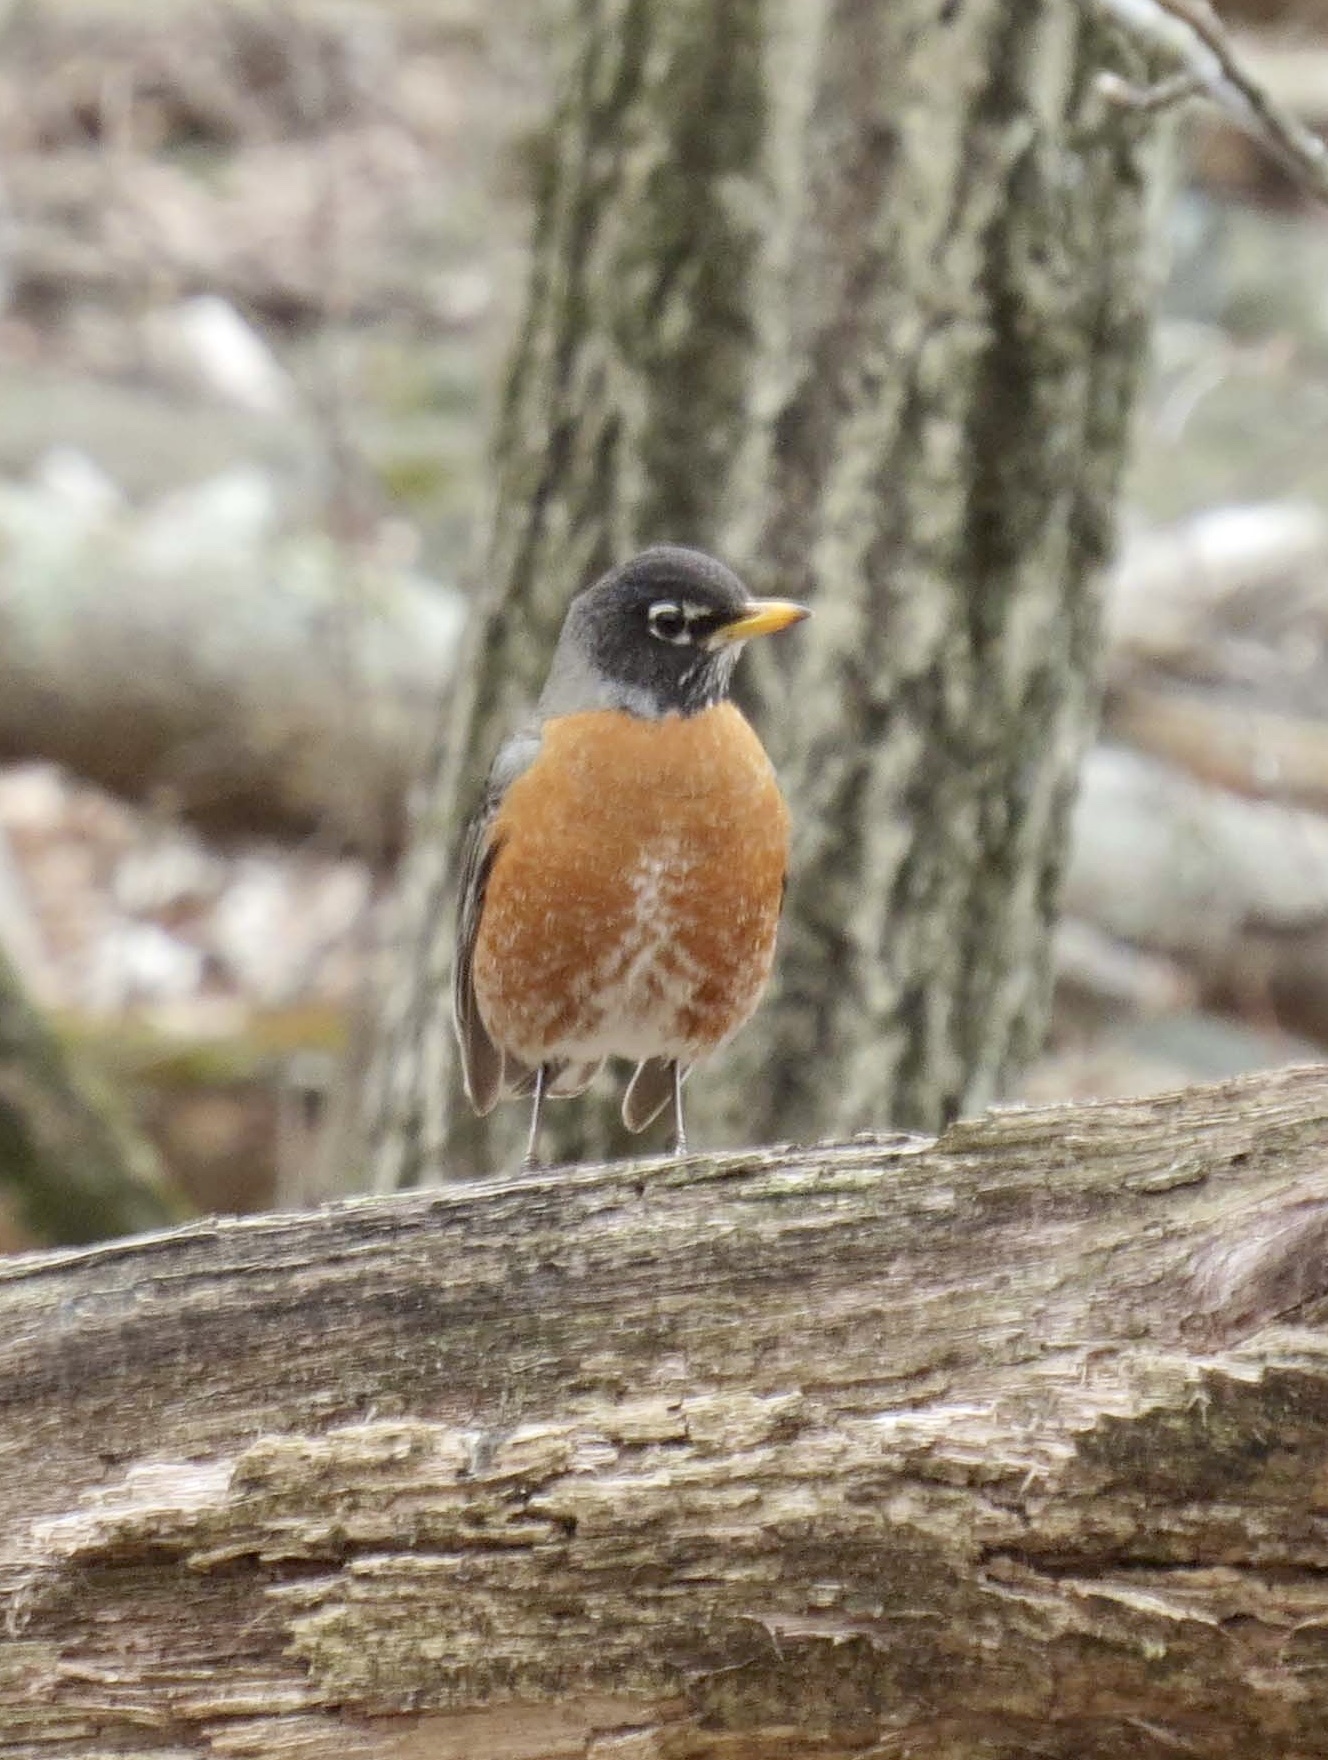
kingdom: Animalia
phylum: Chordata
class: Aves
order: Passeriformes
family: Turdidae
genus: Turdus
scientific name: Turdus migratorius
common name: American robin
